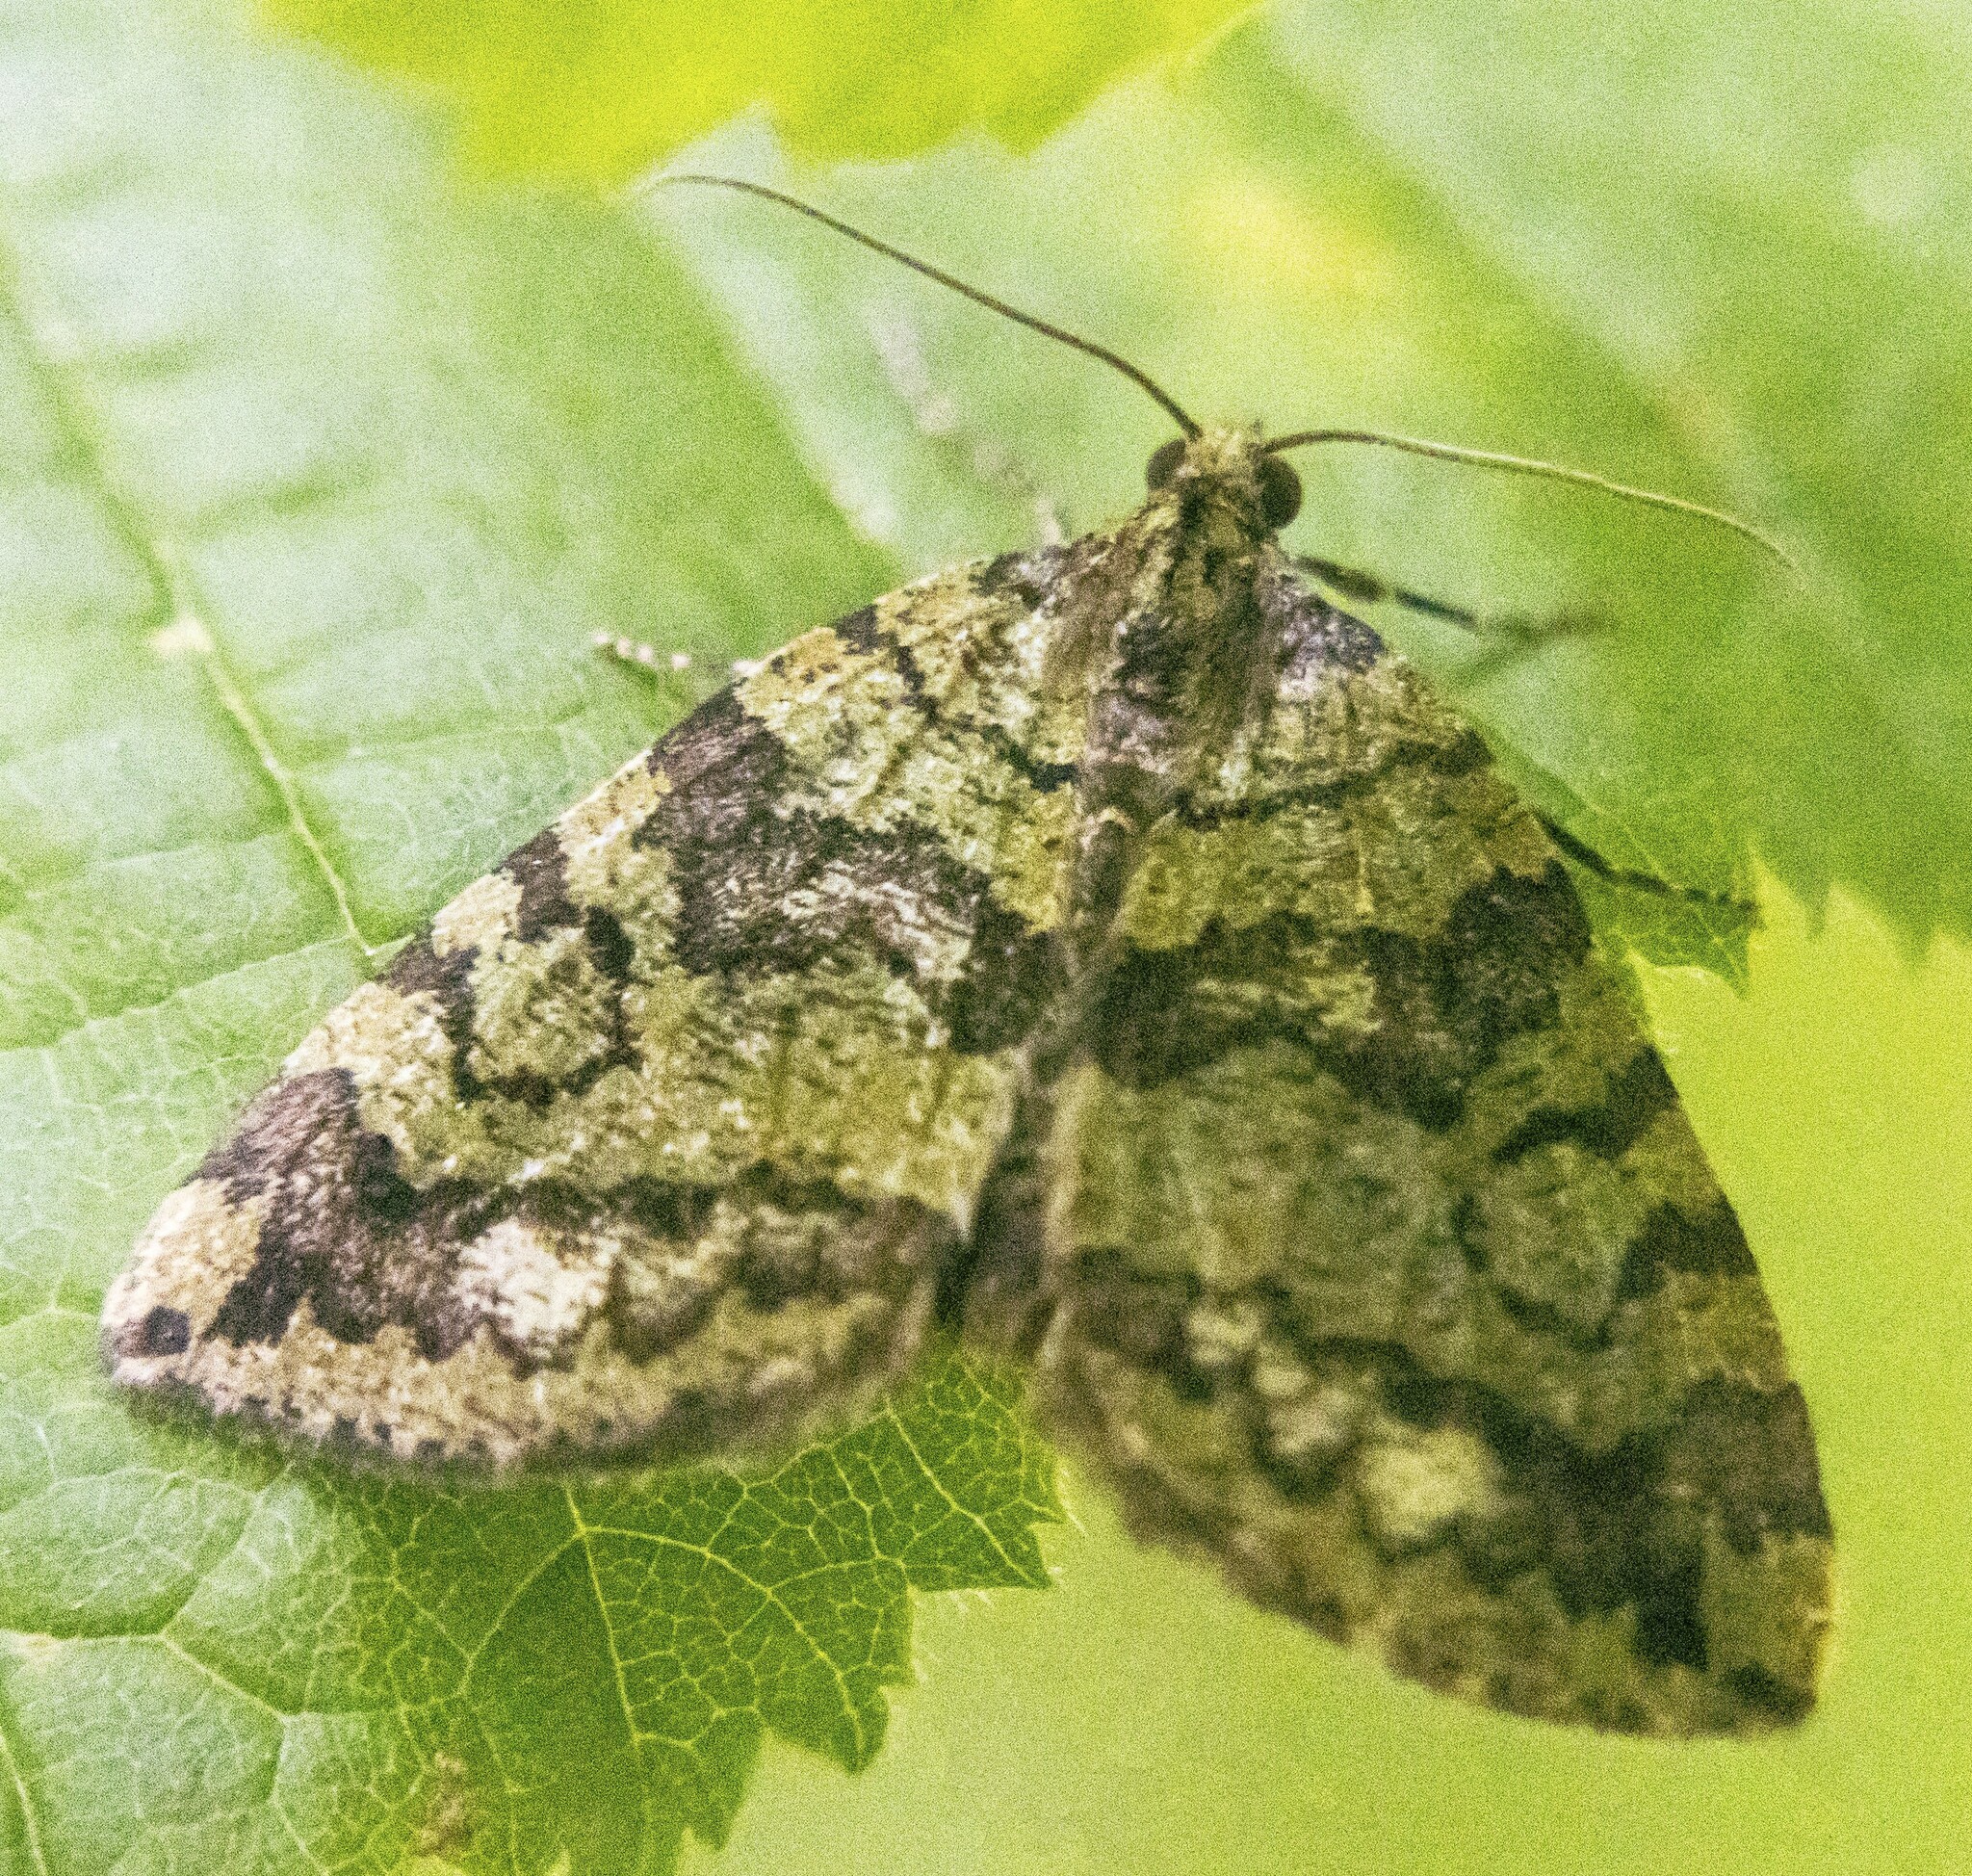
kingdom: Animalia
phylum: Arthropoda
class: Insecta
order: Lepidoptera
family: Geometridae
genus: Hydriomena
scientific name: Hydriomena furcata
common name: July highflyer
